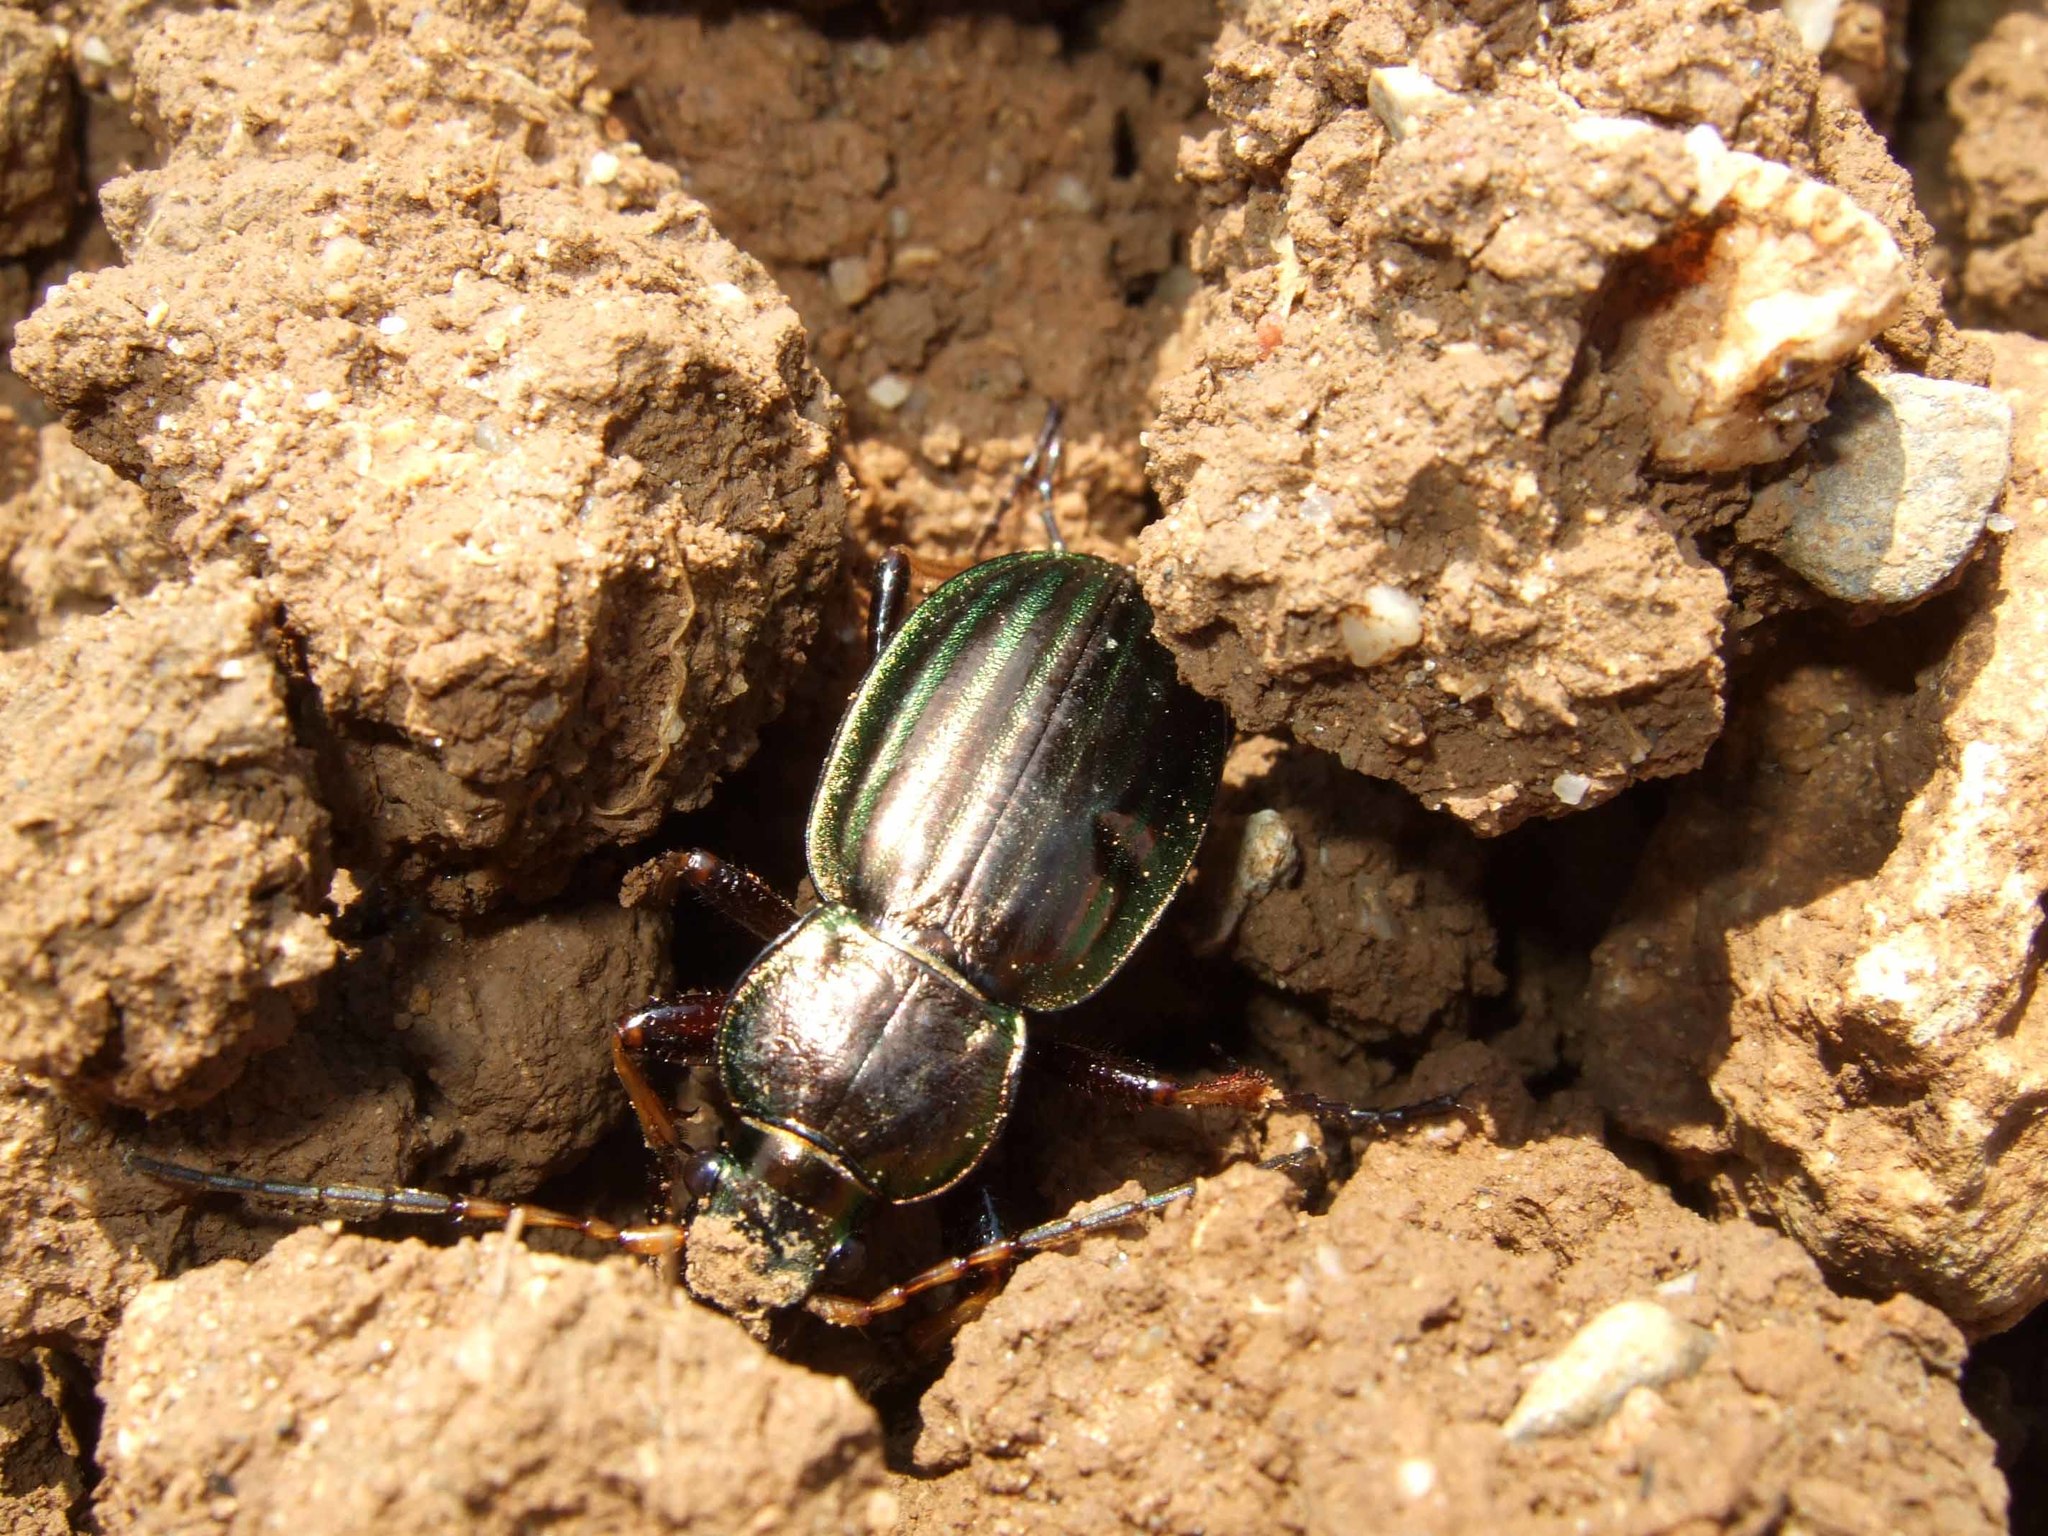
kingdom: Animalia
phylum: Arthropoda
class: Insecta
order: Coleoptera
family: Carabidae
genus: Carabus
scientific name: Carabus auratus
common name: Golden ground beetle
